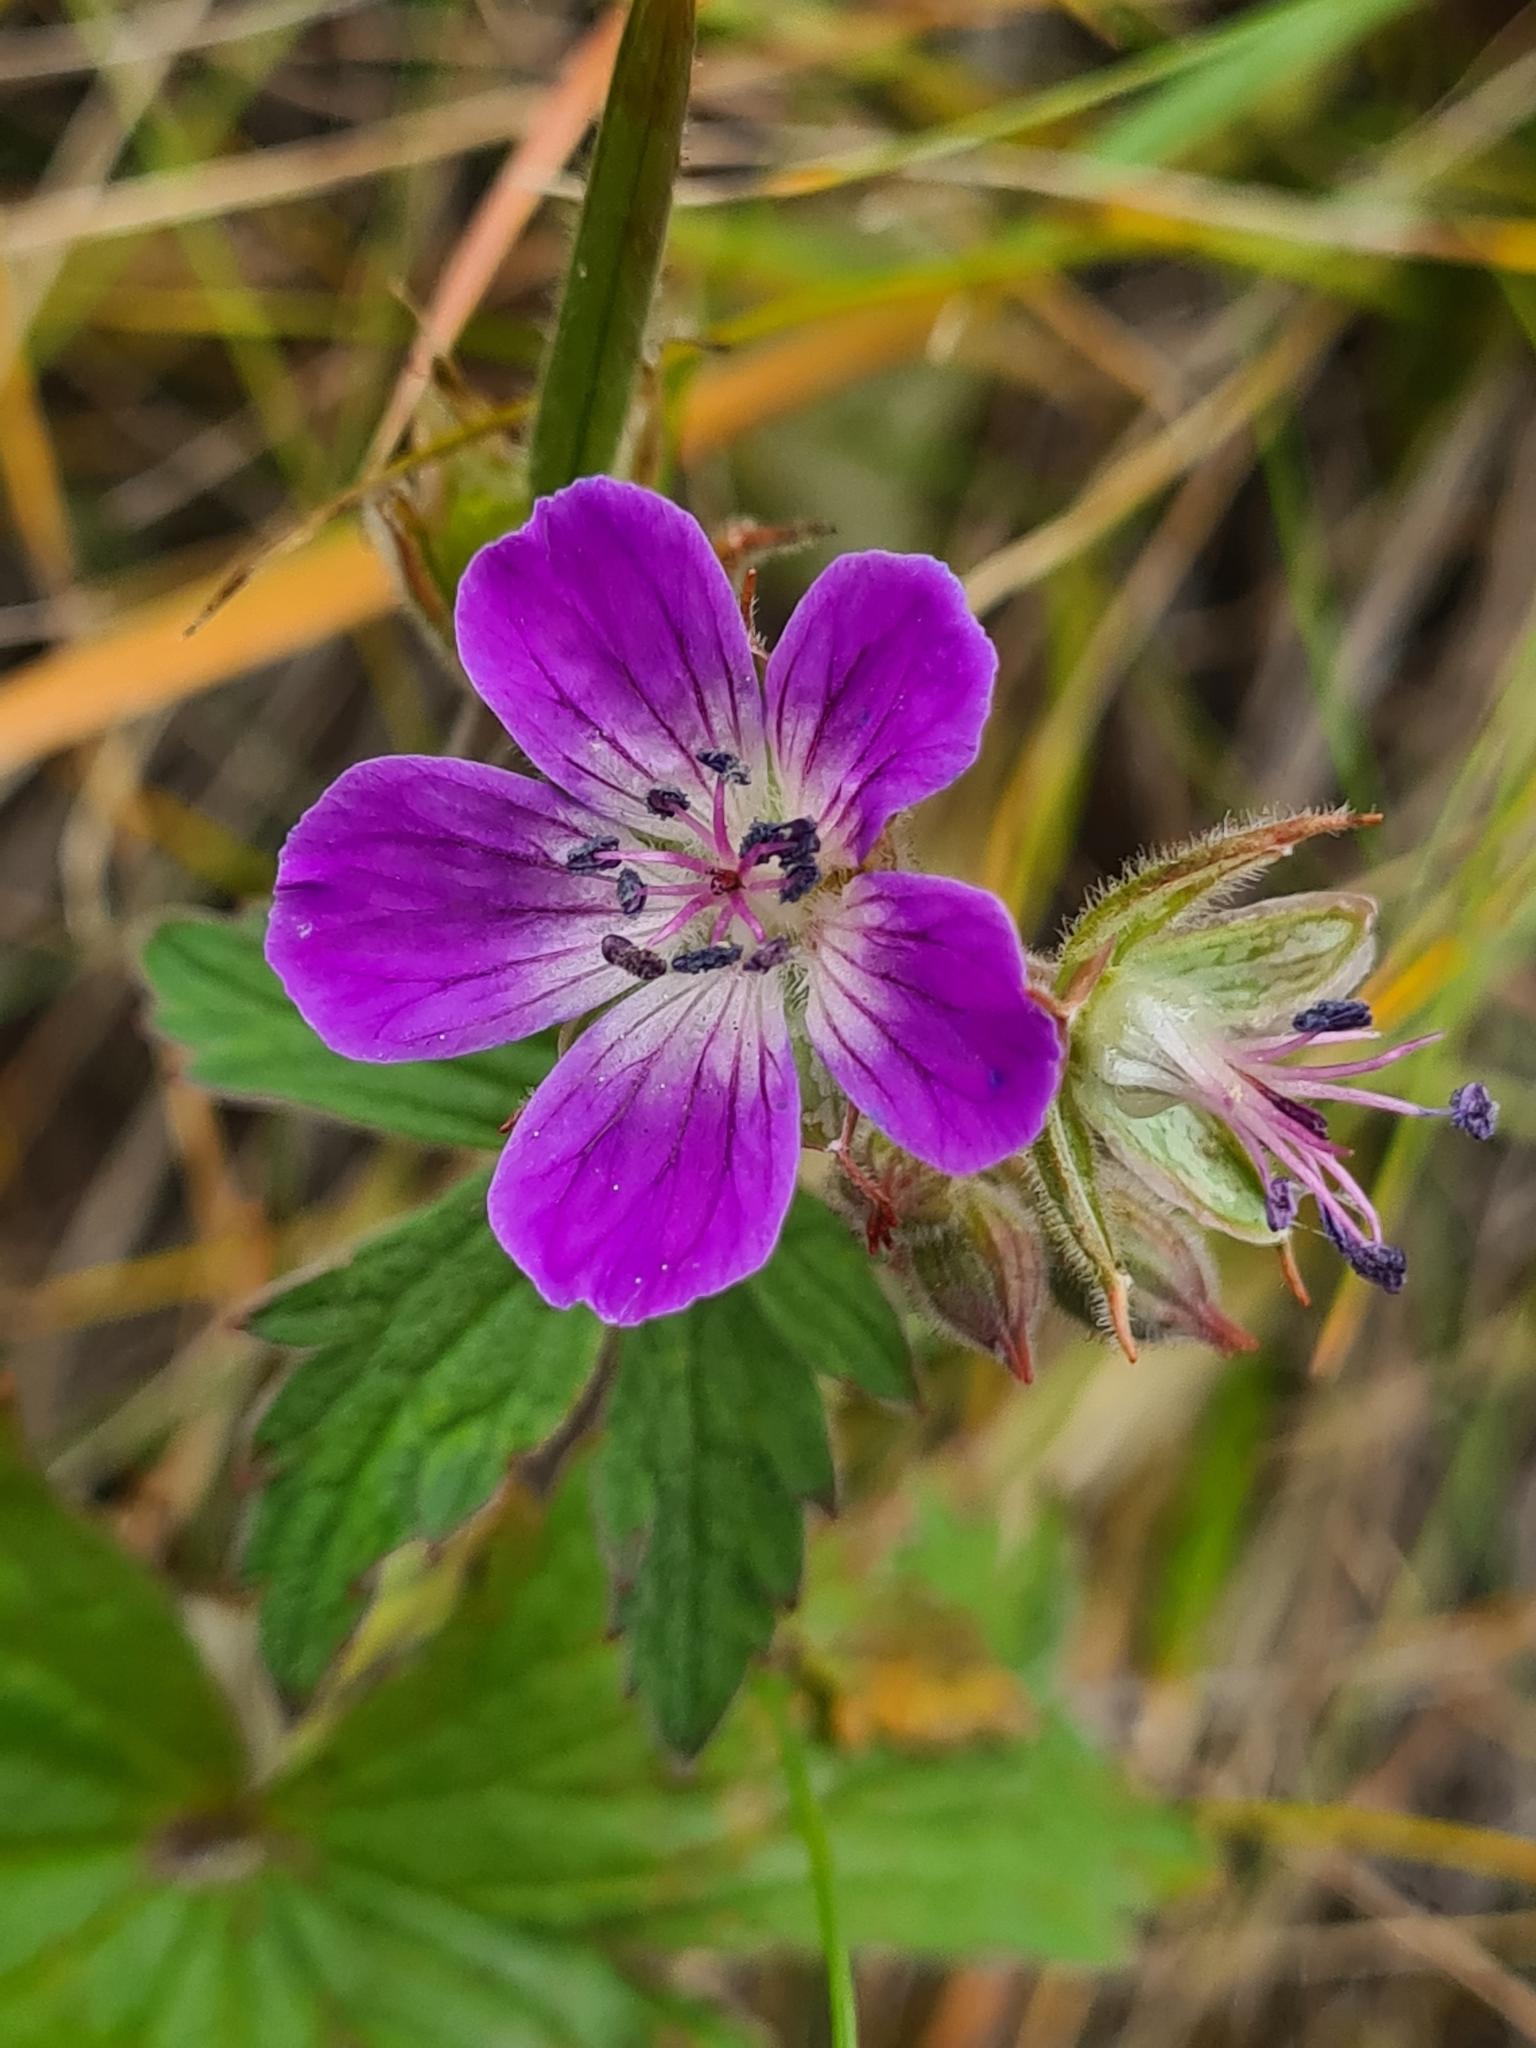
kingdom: Plantae
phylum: Tracheophyta
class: Magnoliopsida
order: Geraniales
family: Geraniaceae
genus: Geranium
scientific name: Geranium sylvaticum
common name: Wood crane's-bill
